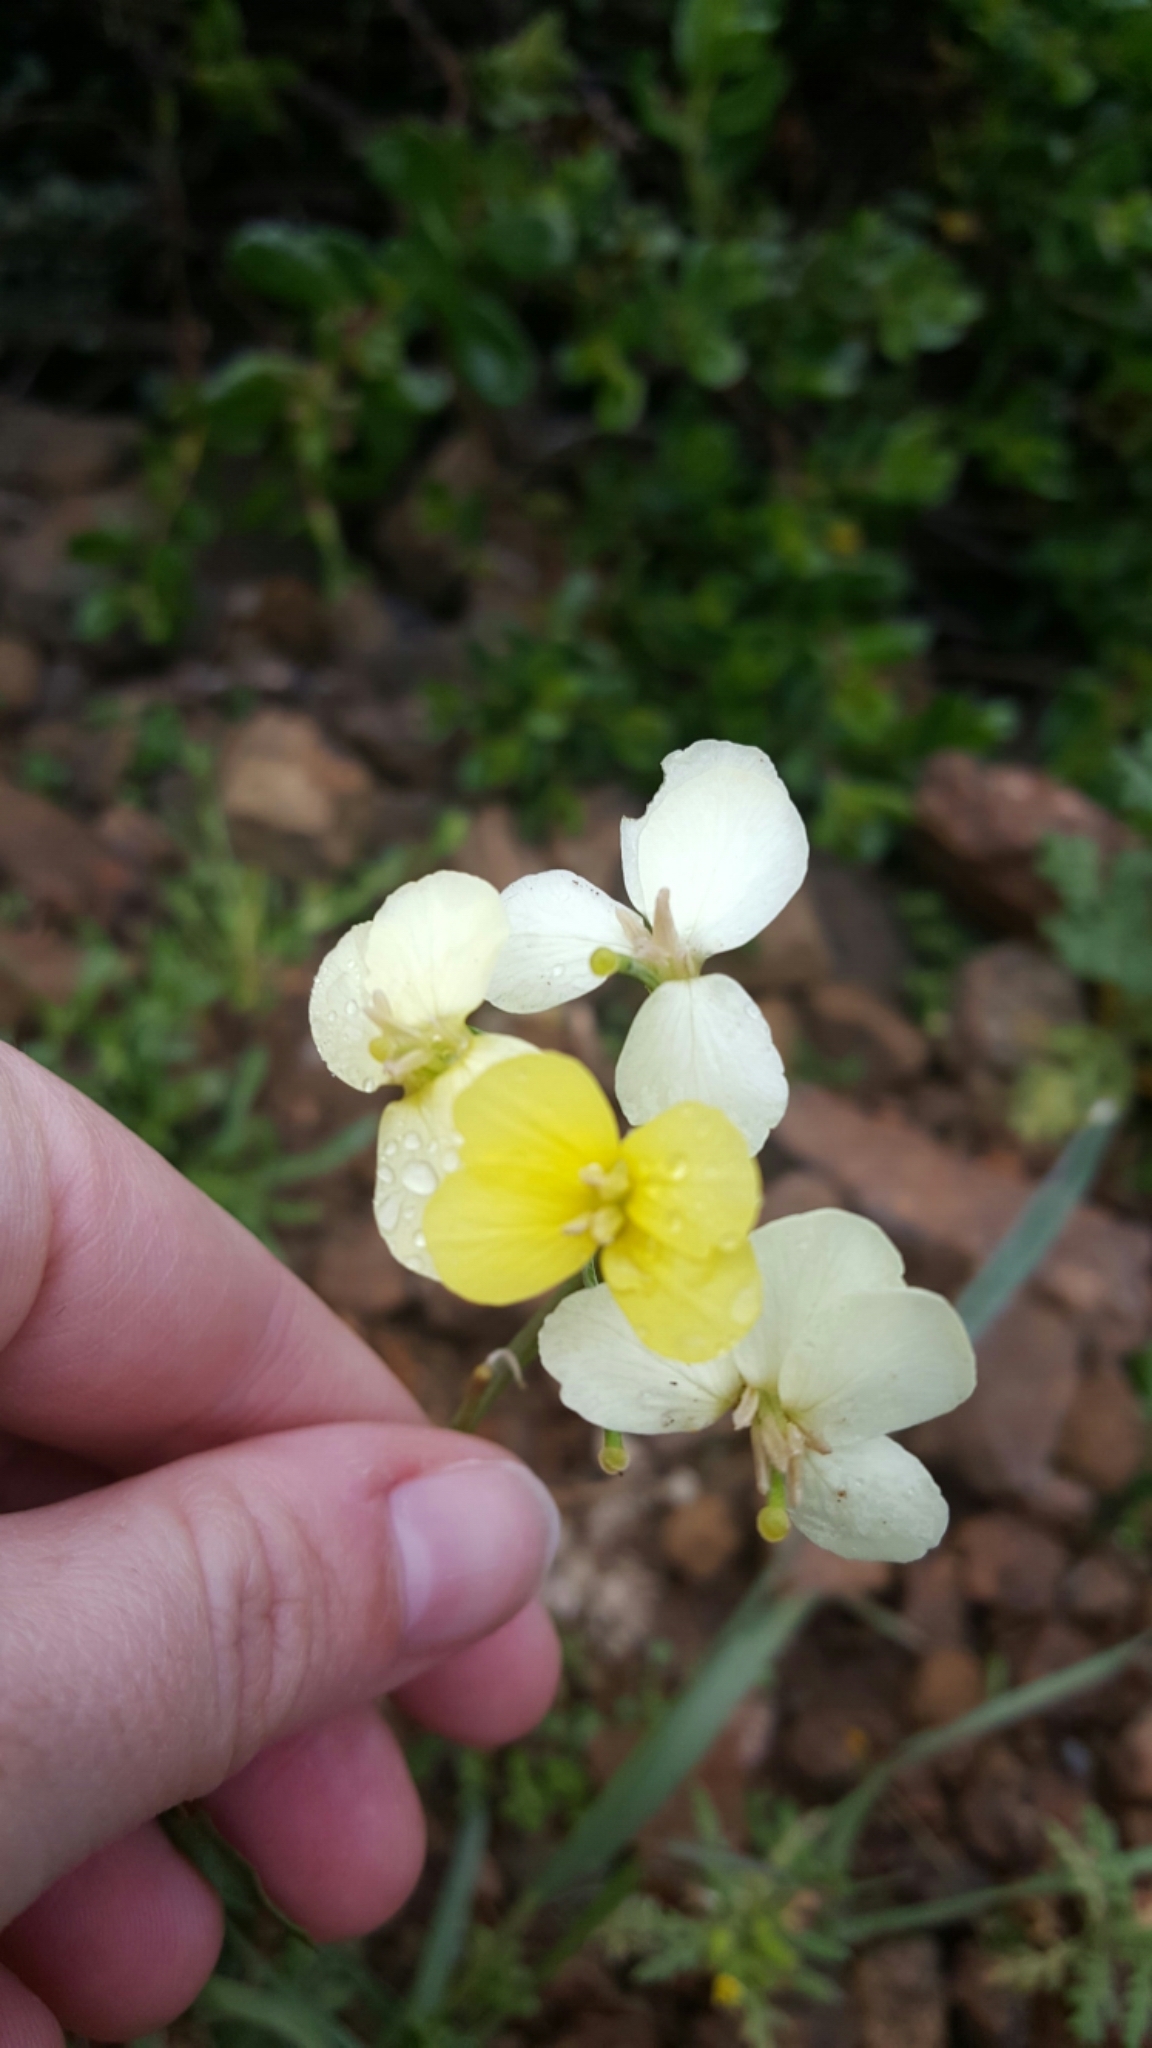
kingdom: Plantae
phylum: Tracheophyta
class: Magnoliopsida
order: Brassicales
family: Brassicaceae
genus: Erysimum
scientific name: Erysimum franciscanum
